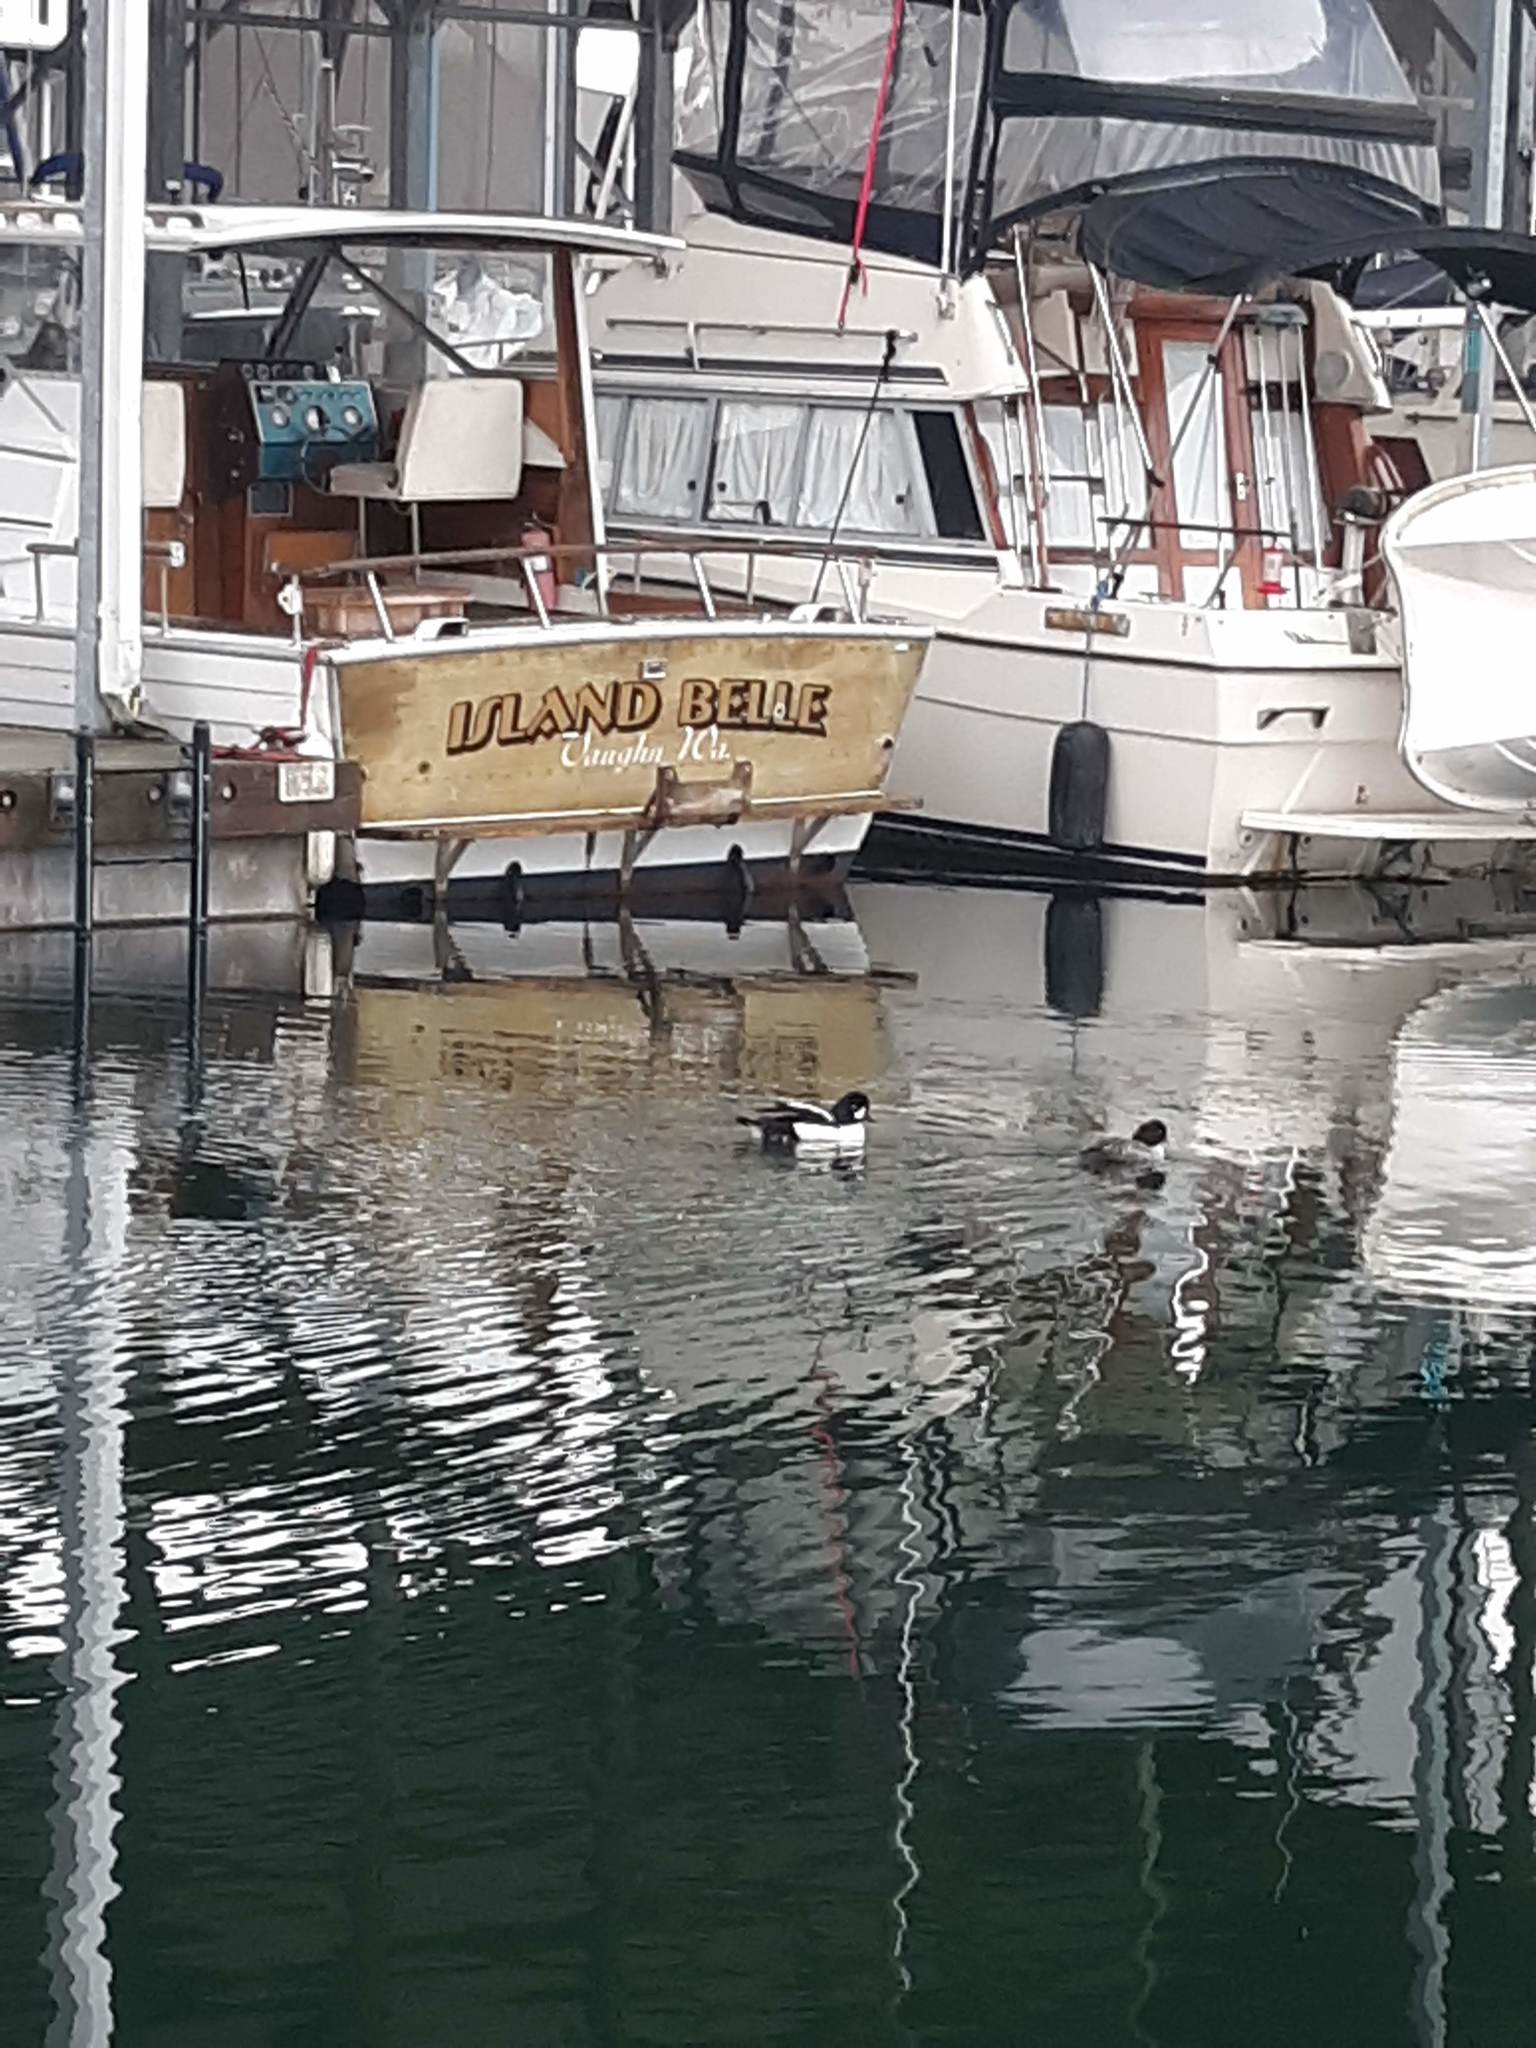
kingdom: Animalia
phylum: Chordata
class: Aves
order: Anseriformes
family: Anatidae
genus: Bucephala
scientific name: Bucephala islandica
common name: Barrow's goldeneye
